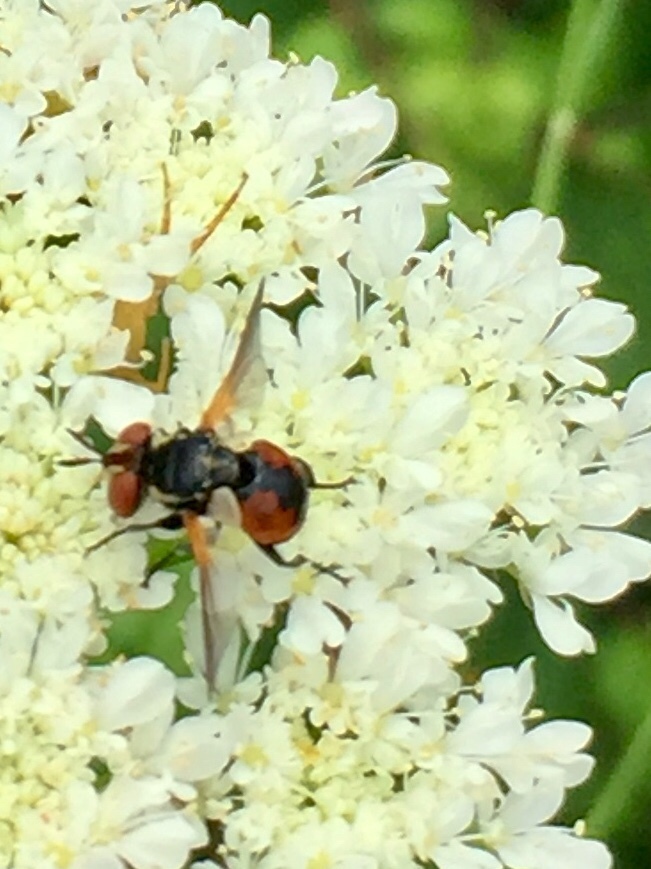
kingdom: Animalia
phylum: Arthropoda
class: Insecta
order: Diptera
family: Tachinidae
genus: Gymnosoma
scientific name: Gymnosoma
